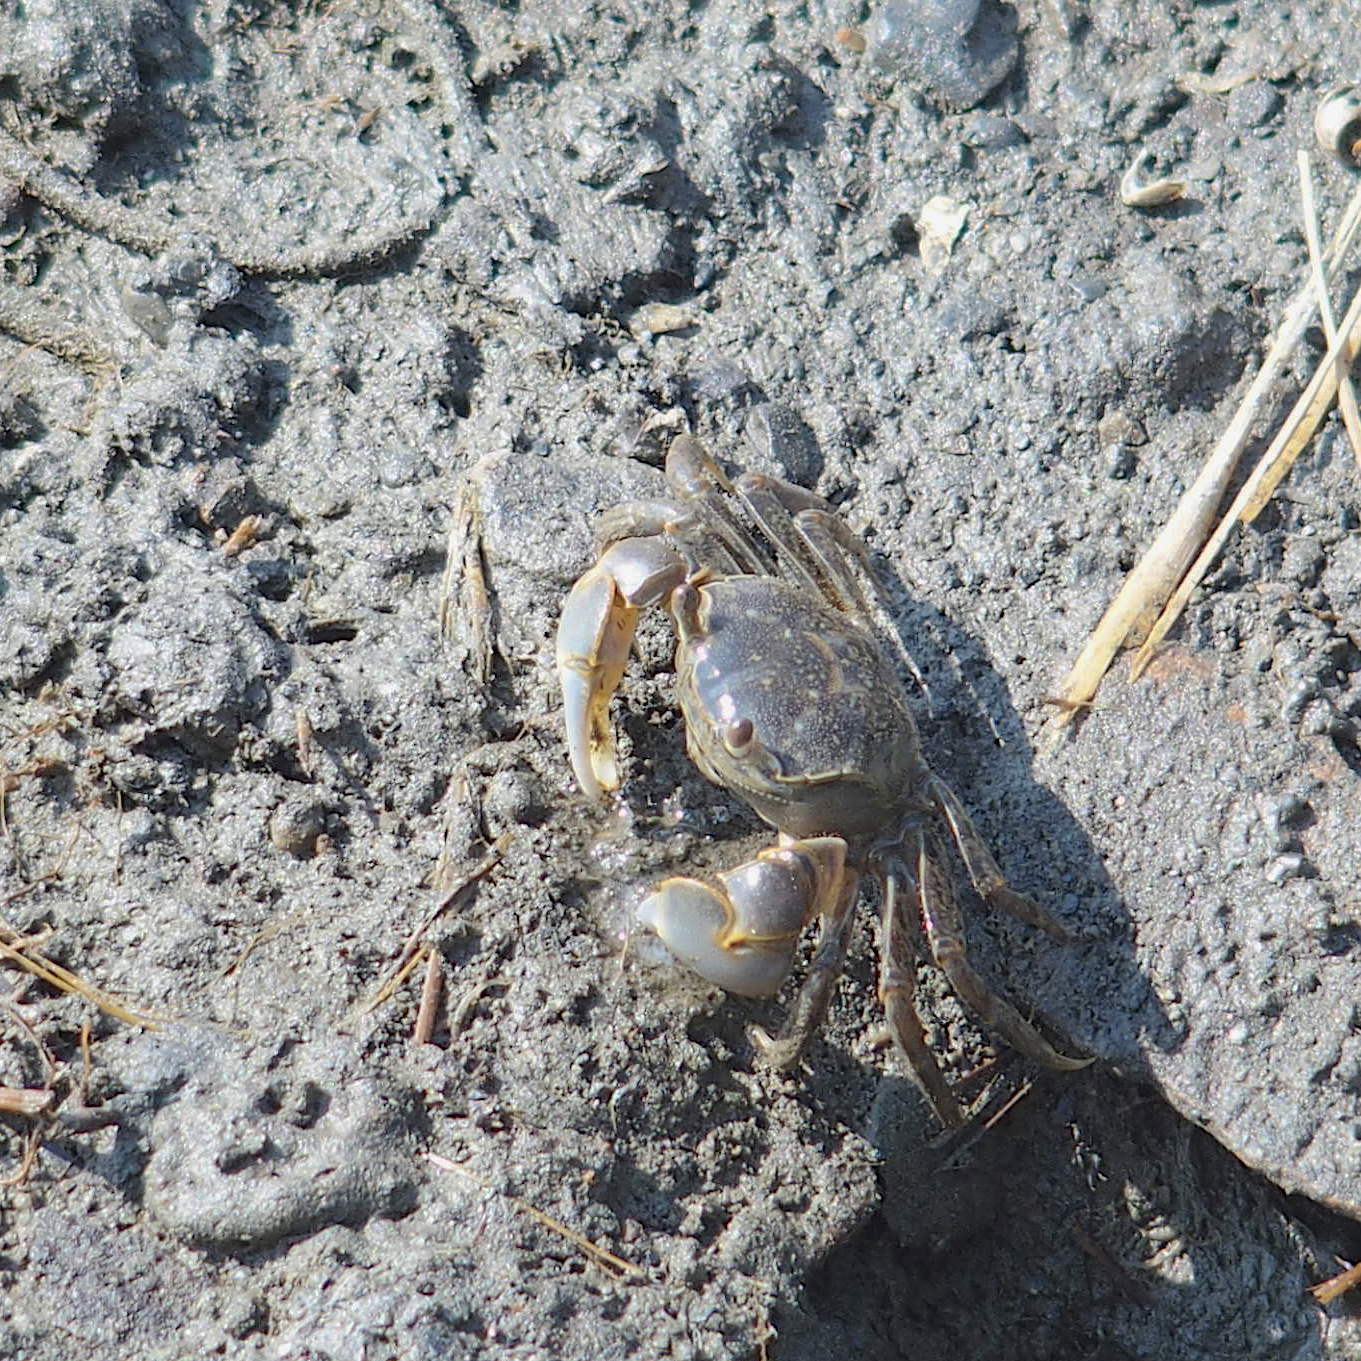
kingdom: Animalia
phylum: Arthropoda
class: Malacostraca
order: Decapoda
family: Varunidae
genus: Helice
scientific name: Helice formosensis
